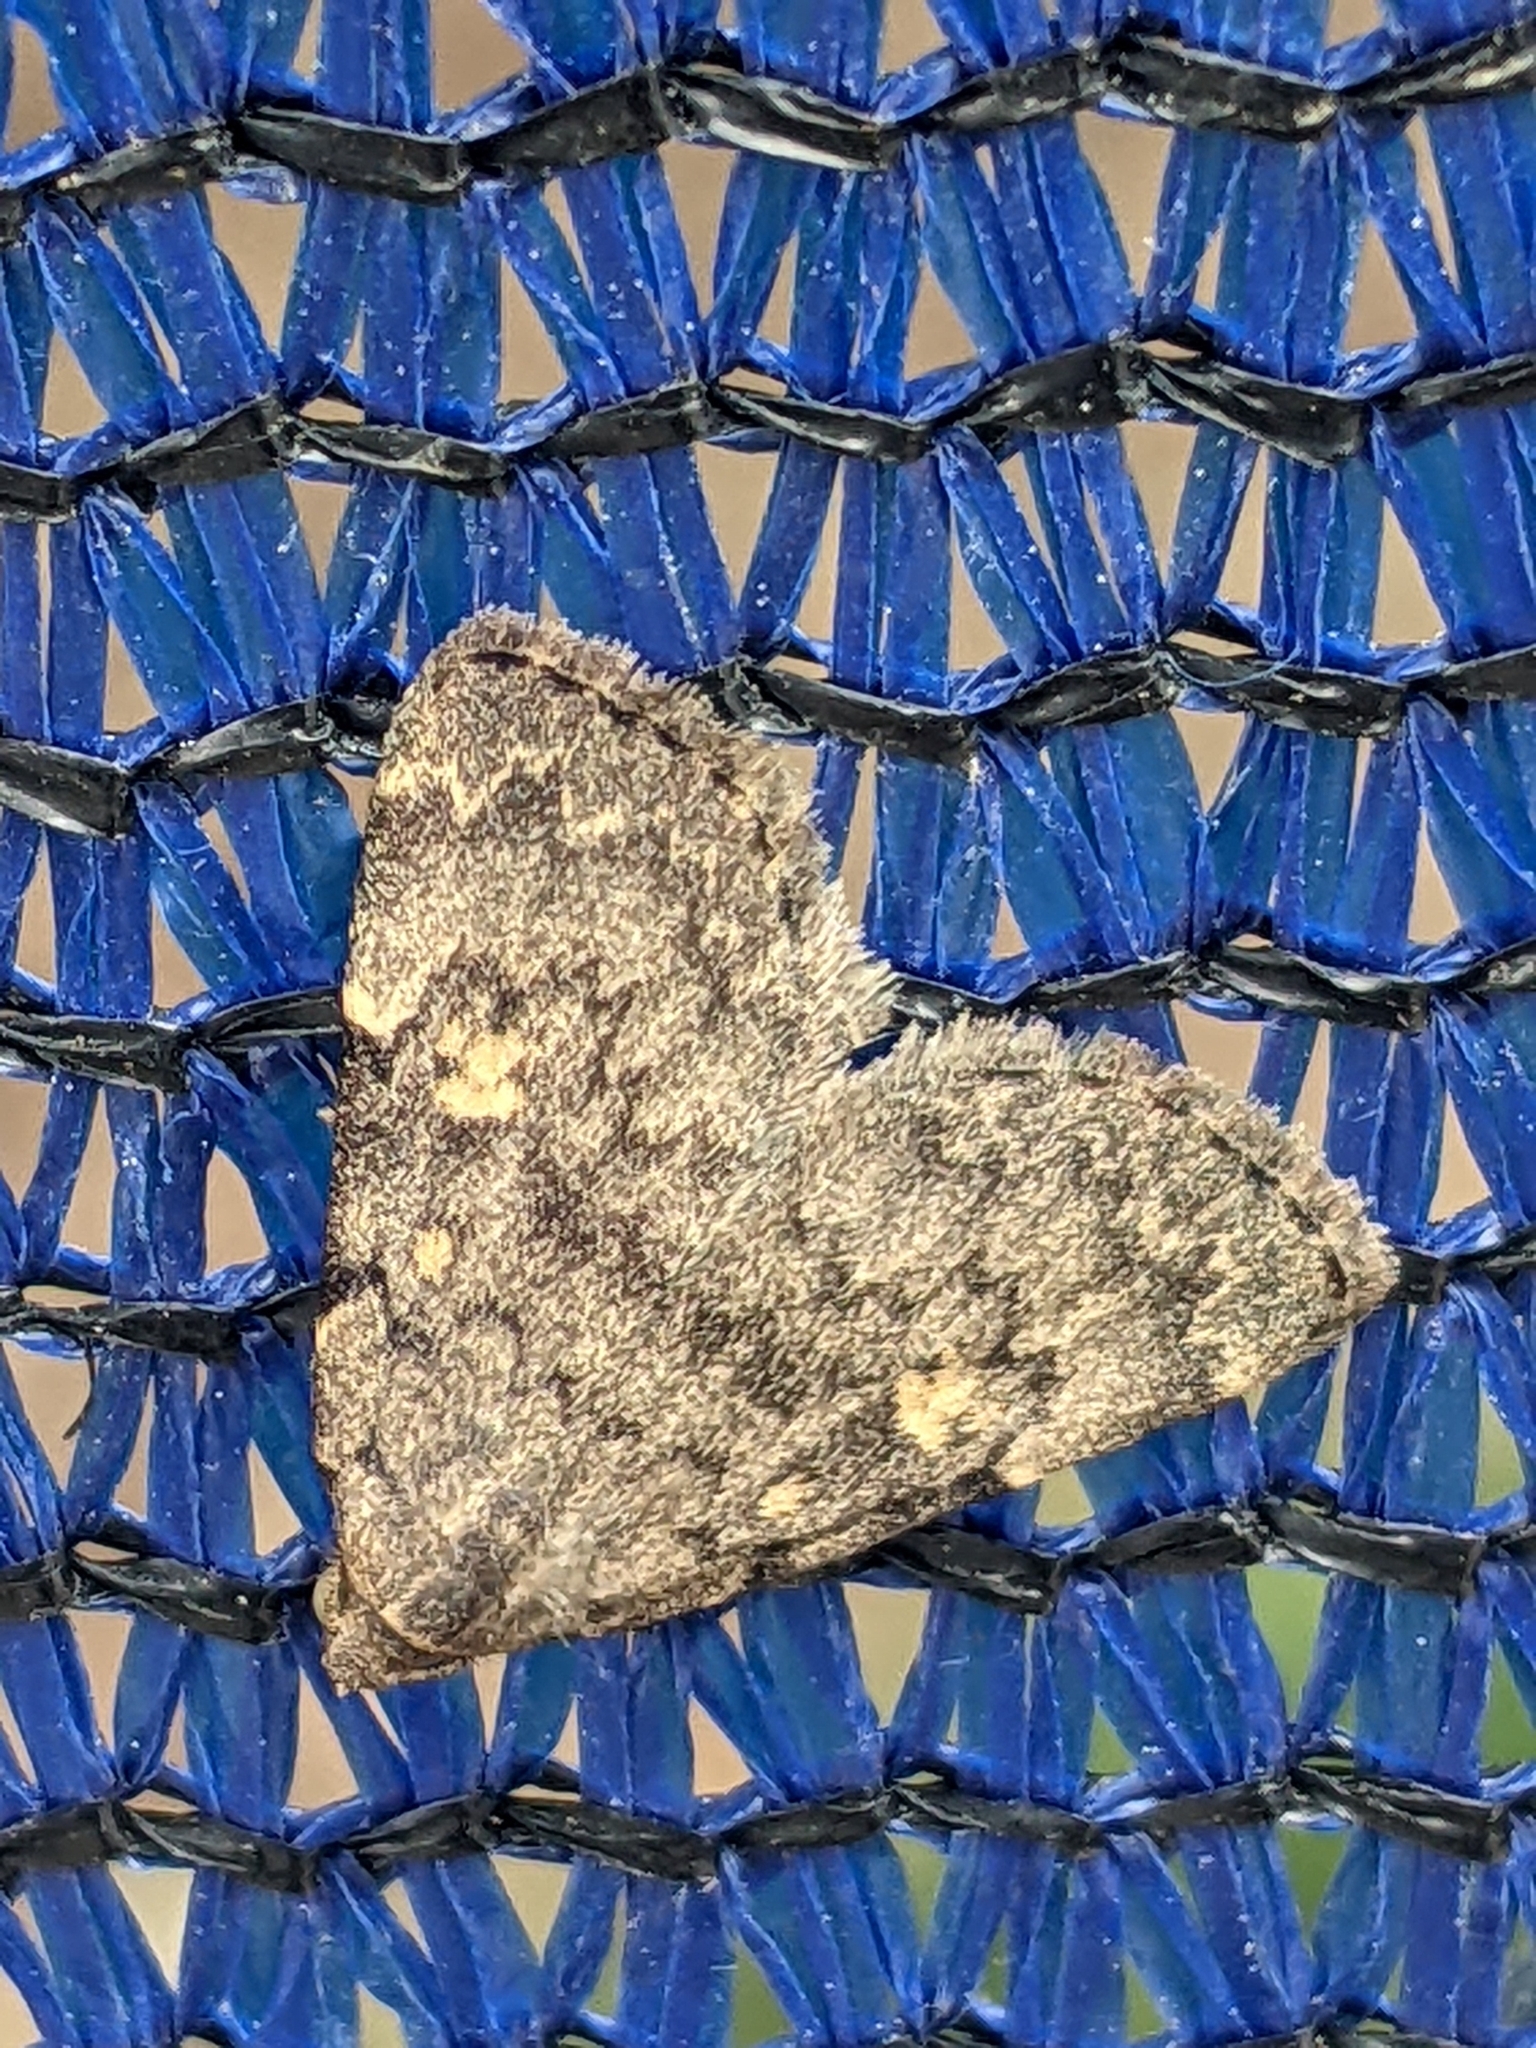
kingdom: Animalia
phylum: Arthropoda
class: Insecta
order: Lepidoptera
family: Erebidae
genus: Idia
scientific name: Idia aemula
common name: Common idia moth
